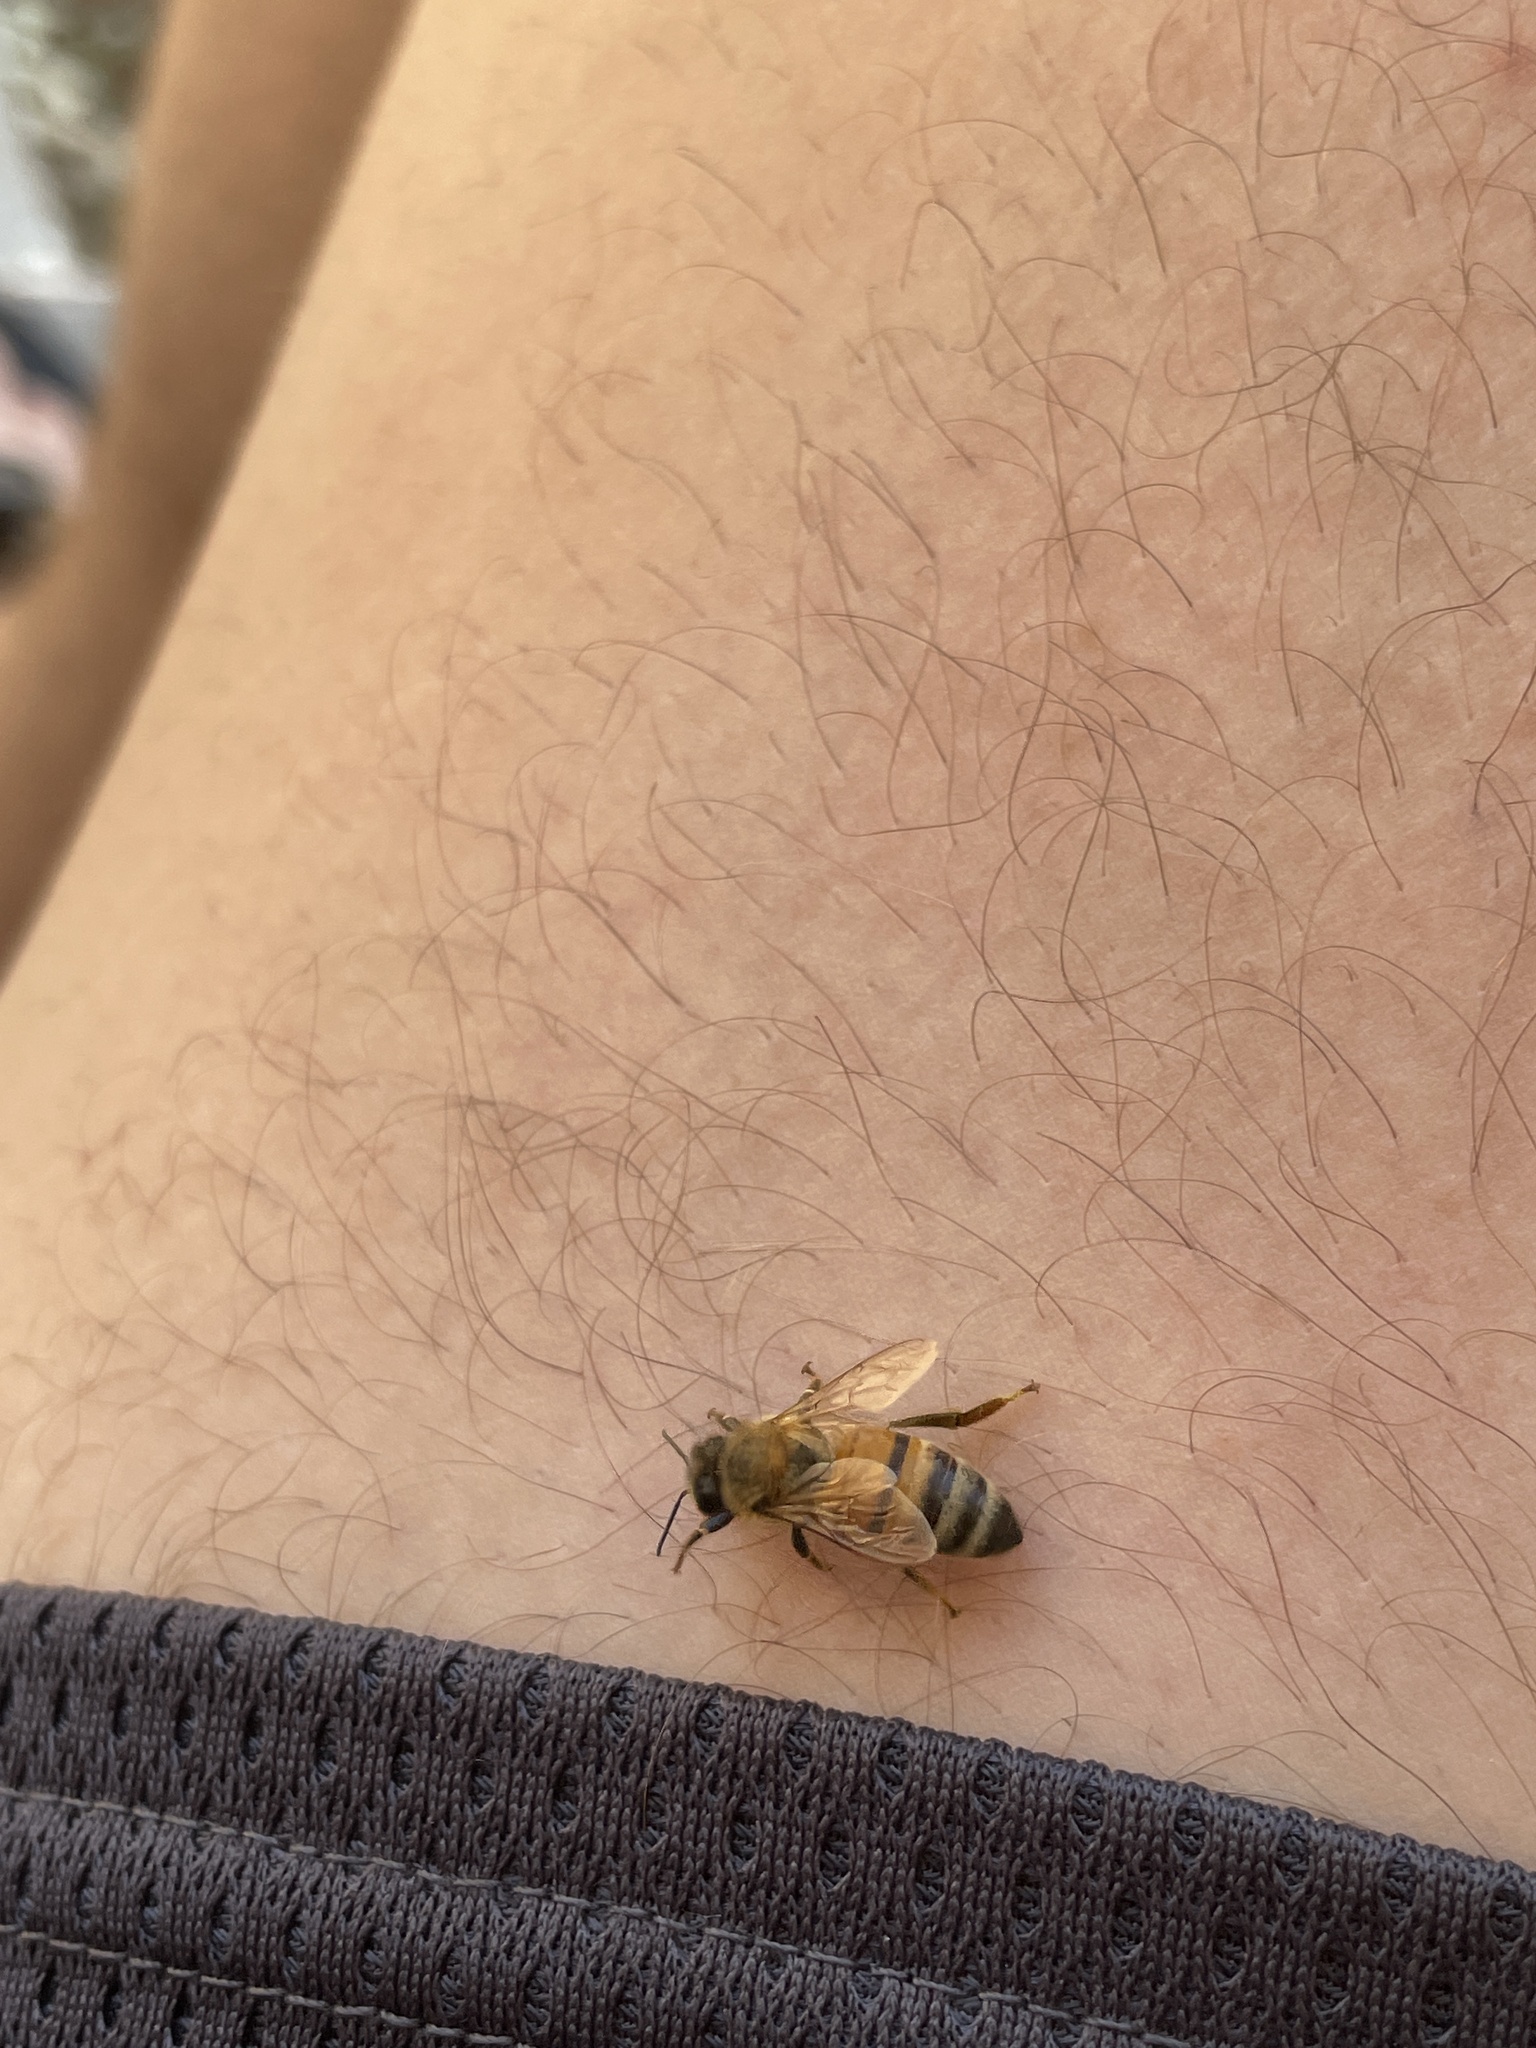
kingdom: Animalia
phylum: Arthropoda
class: Insecta
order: Hymenoptera
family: Apidae
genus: Apis
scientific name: Apis mellifera
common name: Honey bee
